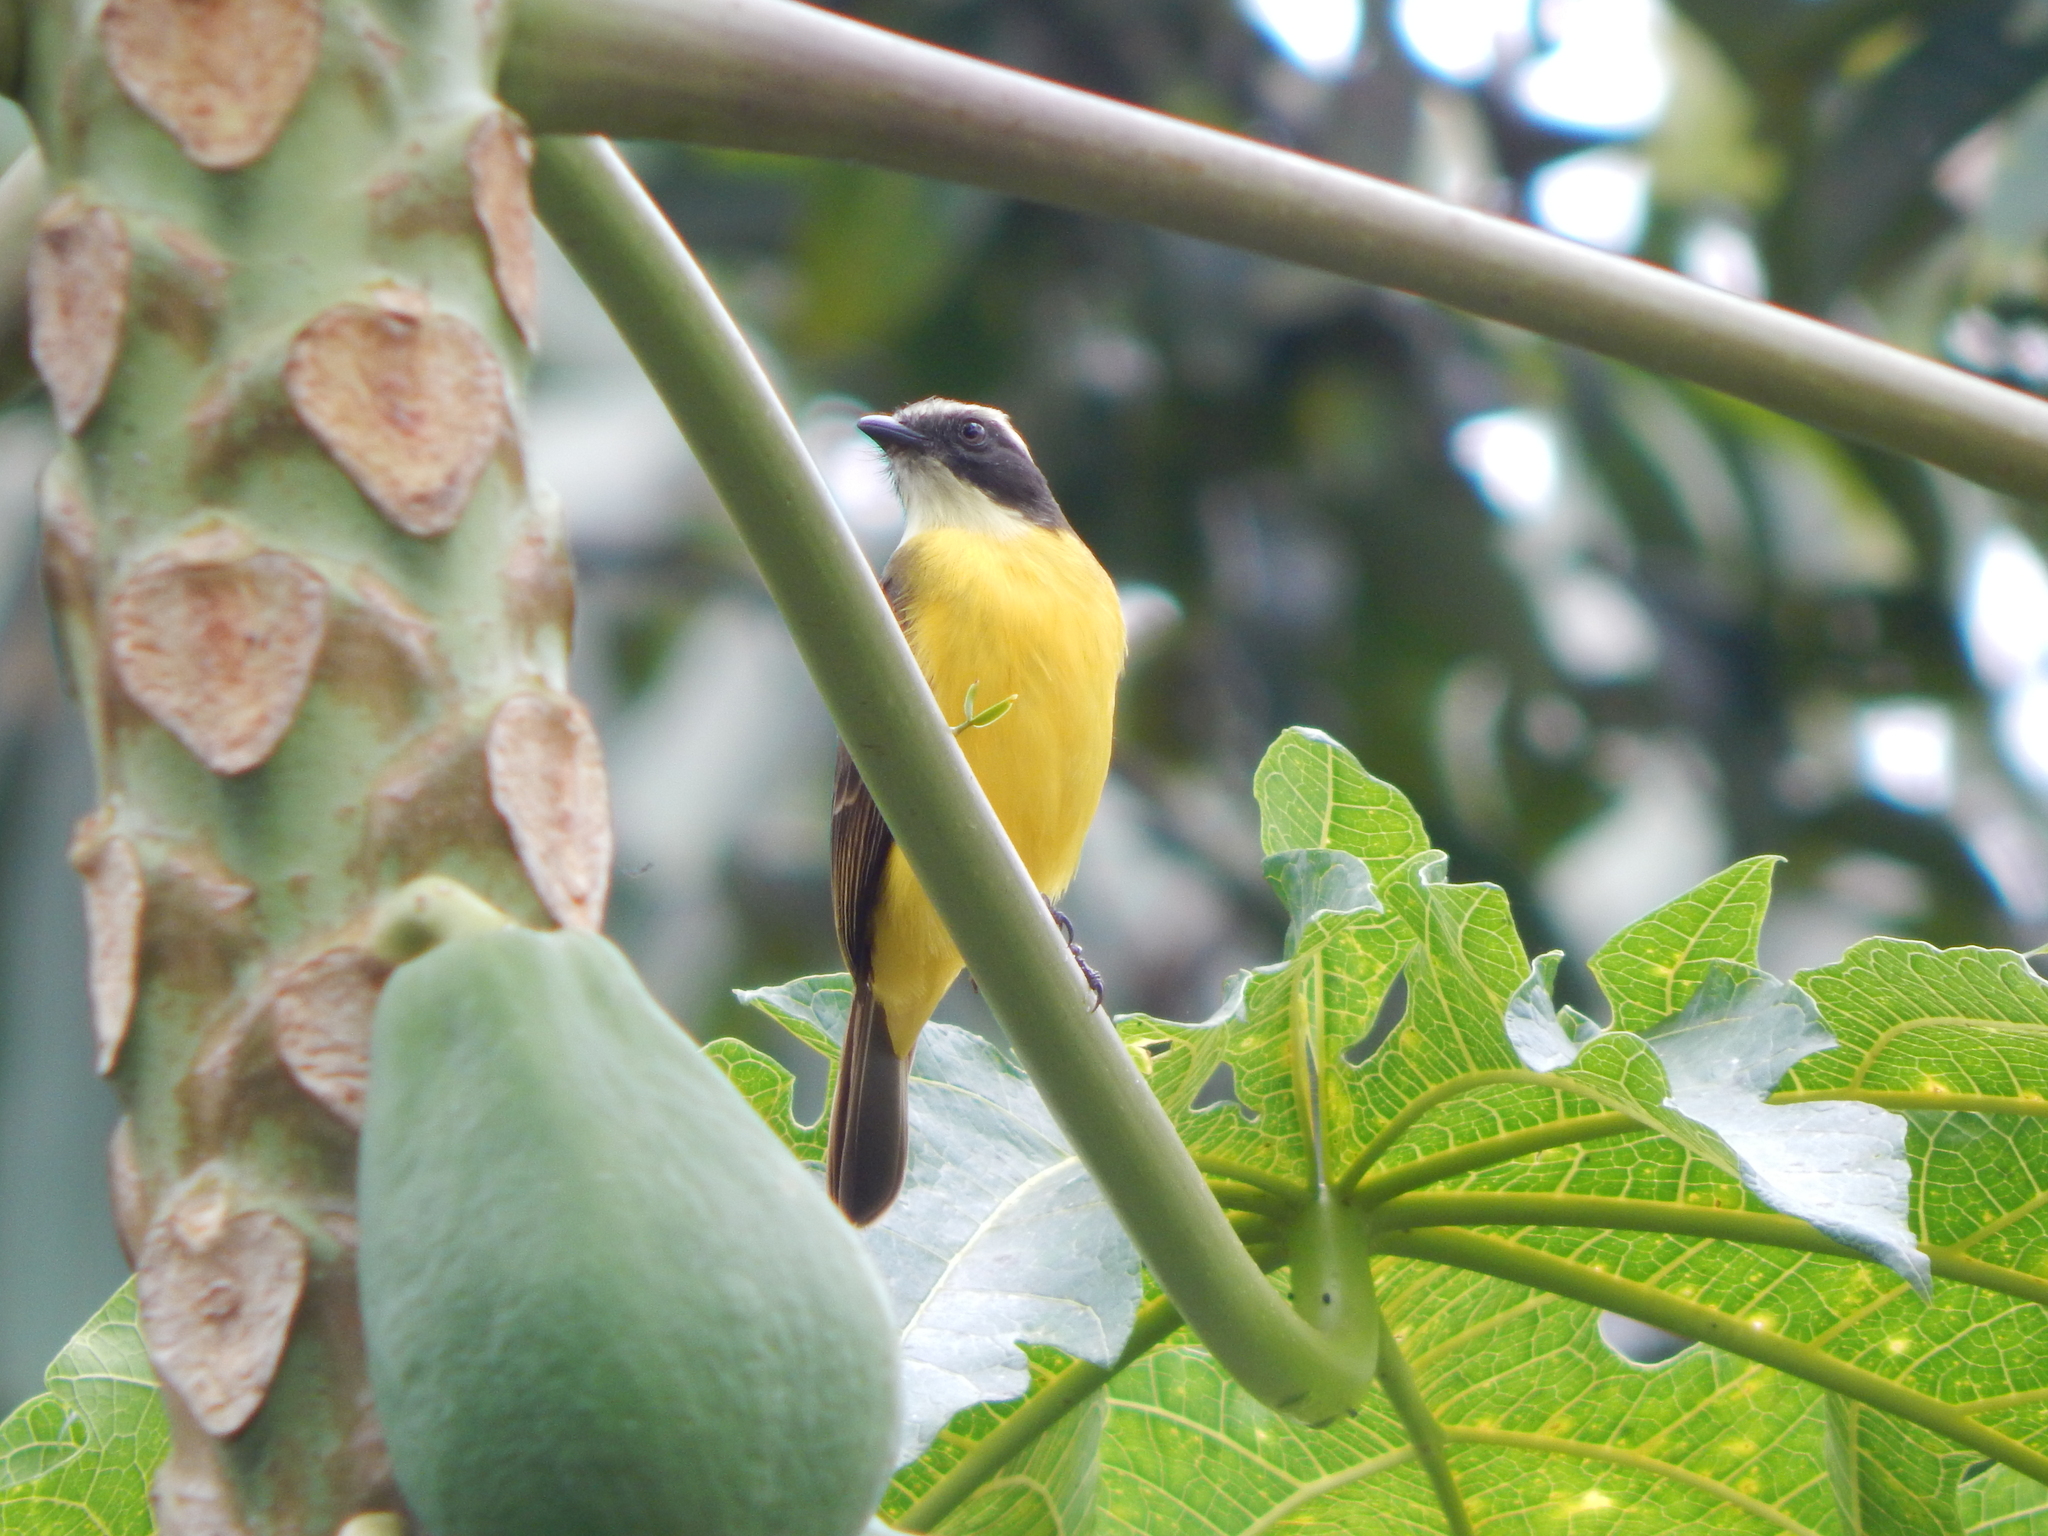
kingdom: Animalia
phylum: Chordata
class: Aves
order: Passeriformes
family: Tyrannidae
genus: Myiozetetes
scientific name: Myiozetetes similis
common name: Social flycatcher
